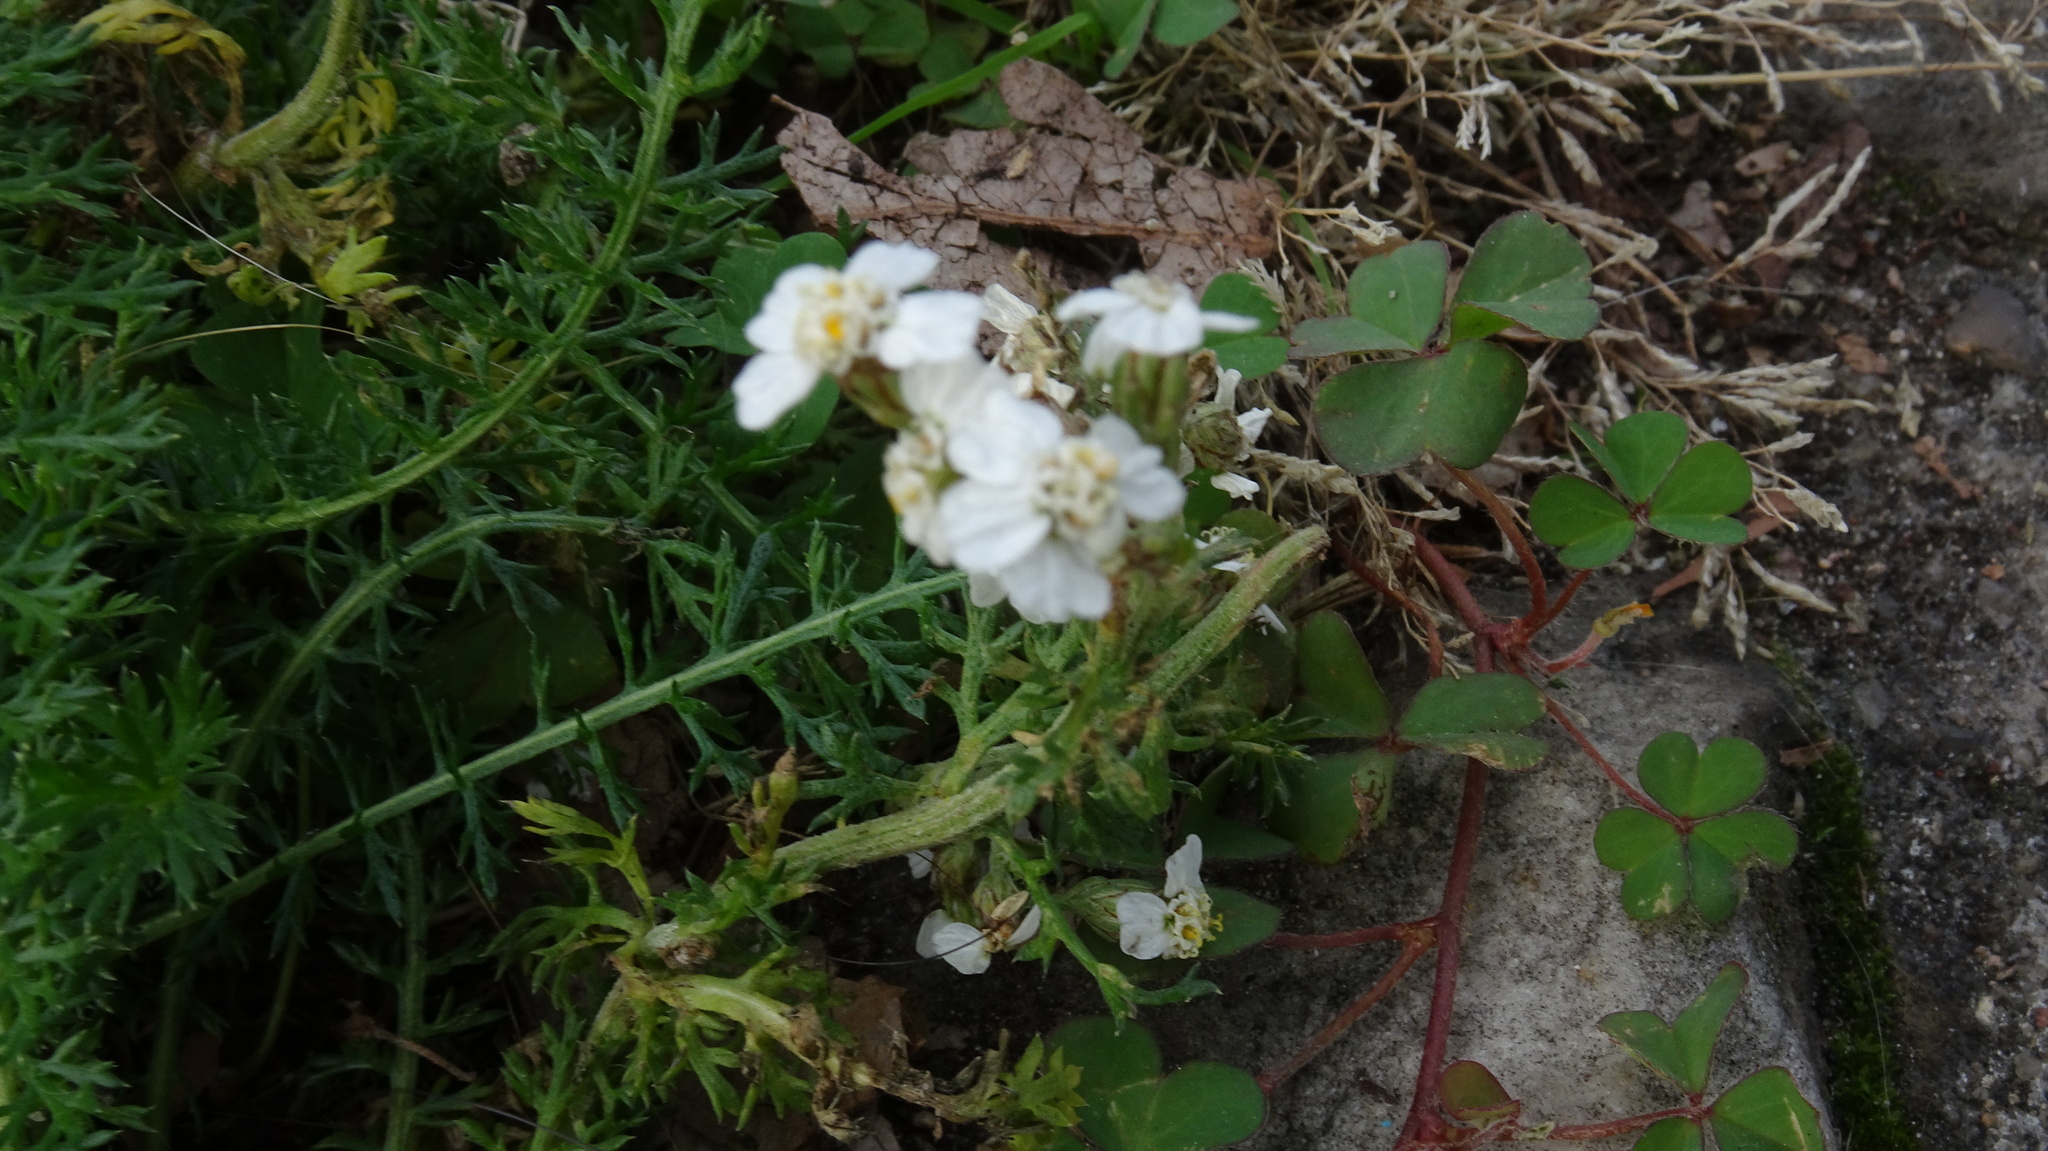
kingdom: Plantae
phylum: Tracheophyta
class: Magnoliopsida
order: Asterales
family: Asteraceae
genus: Achillea
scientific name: Achillea millefolium
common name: Yarrow
